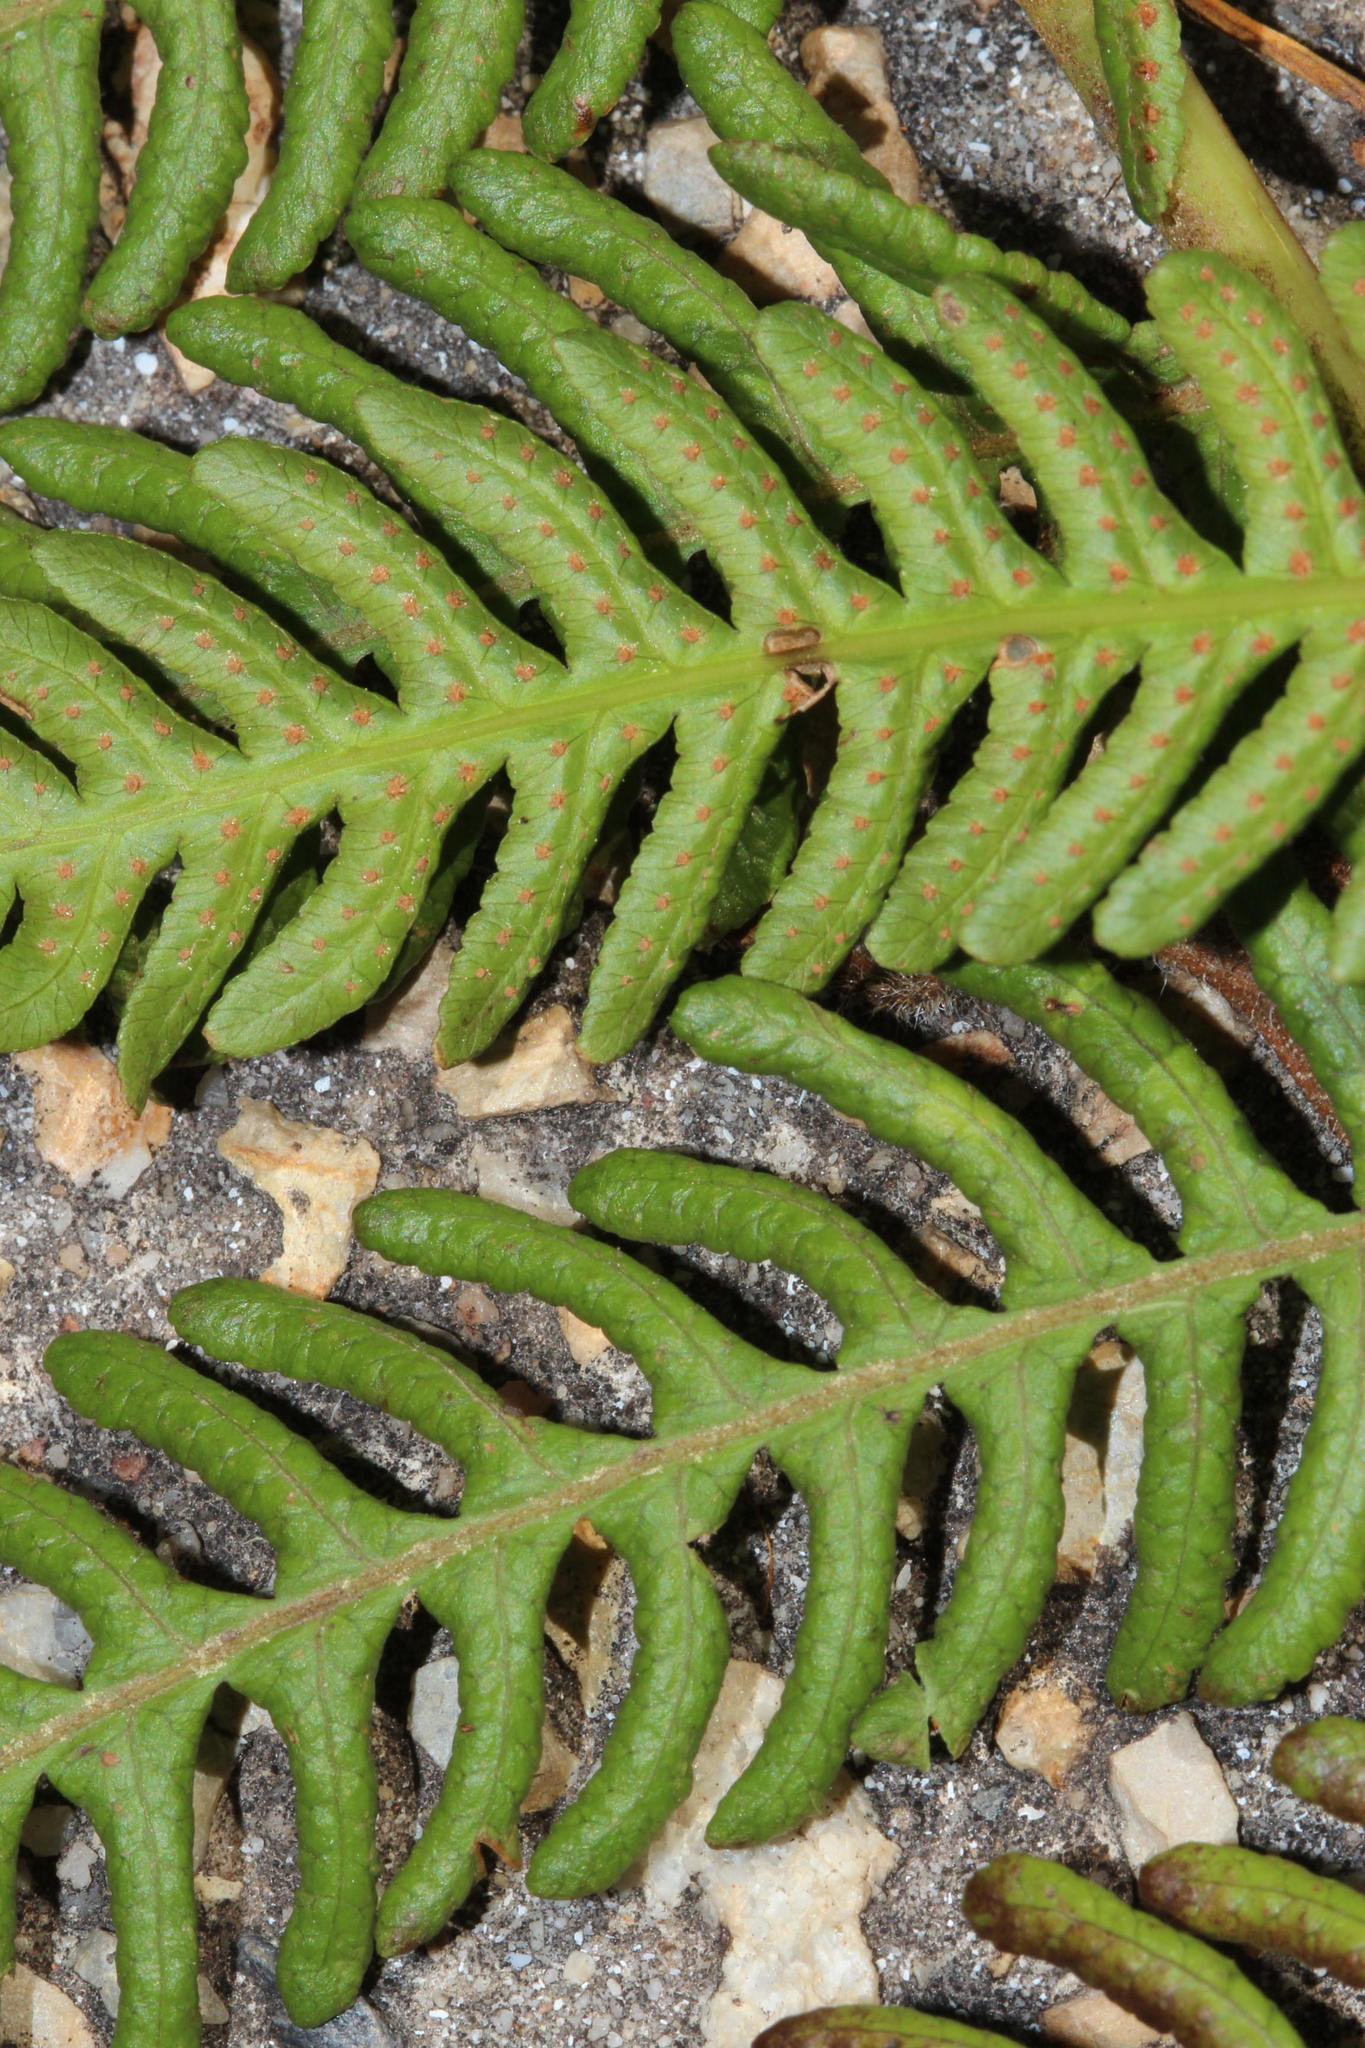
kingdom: Plantae
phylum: Tracheophyta
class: Polypodiopsida
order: Cyatheales
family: Cyatheaceae
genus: Sphaeropteris
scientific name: Sphaeropteris cooperi
